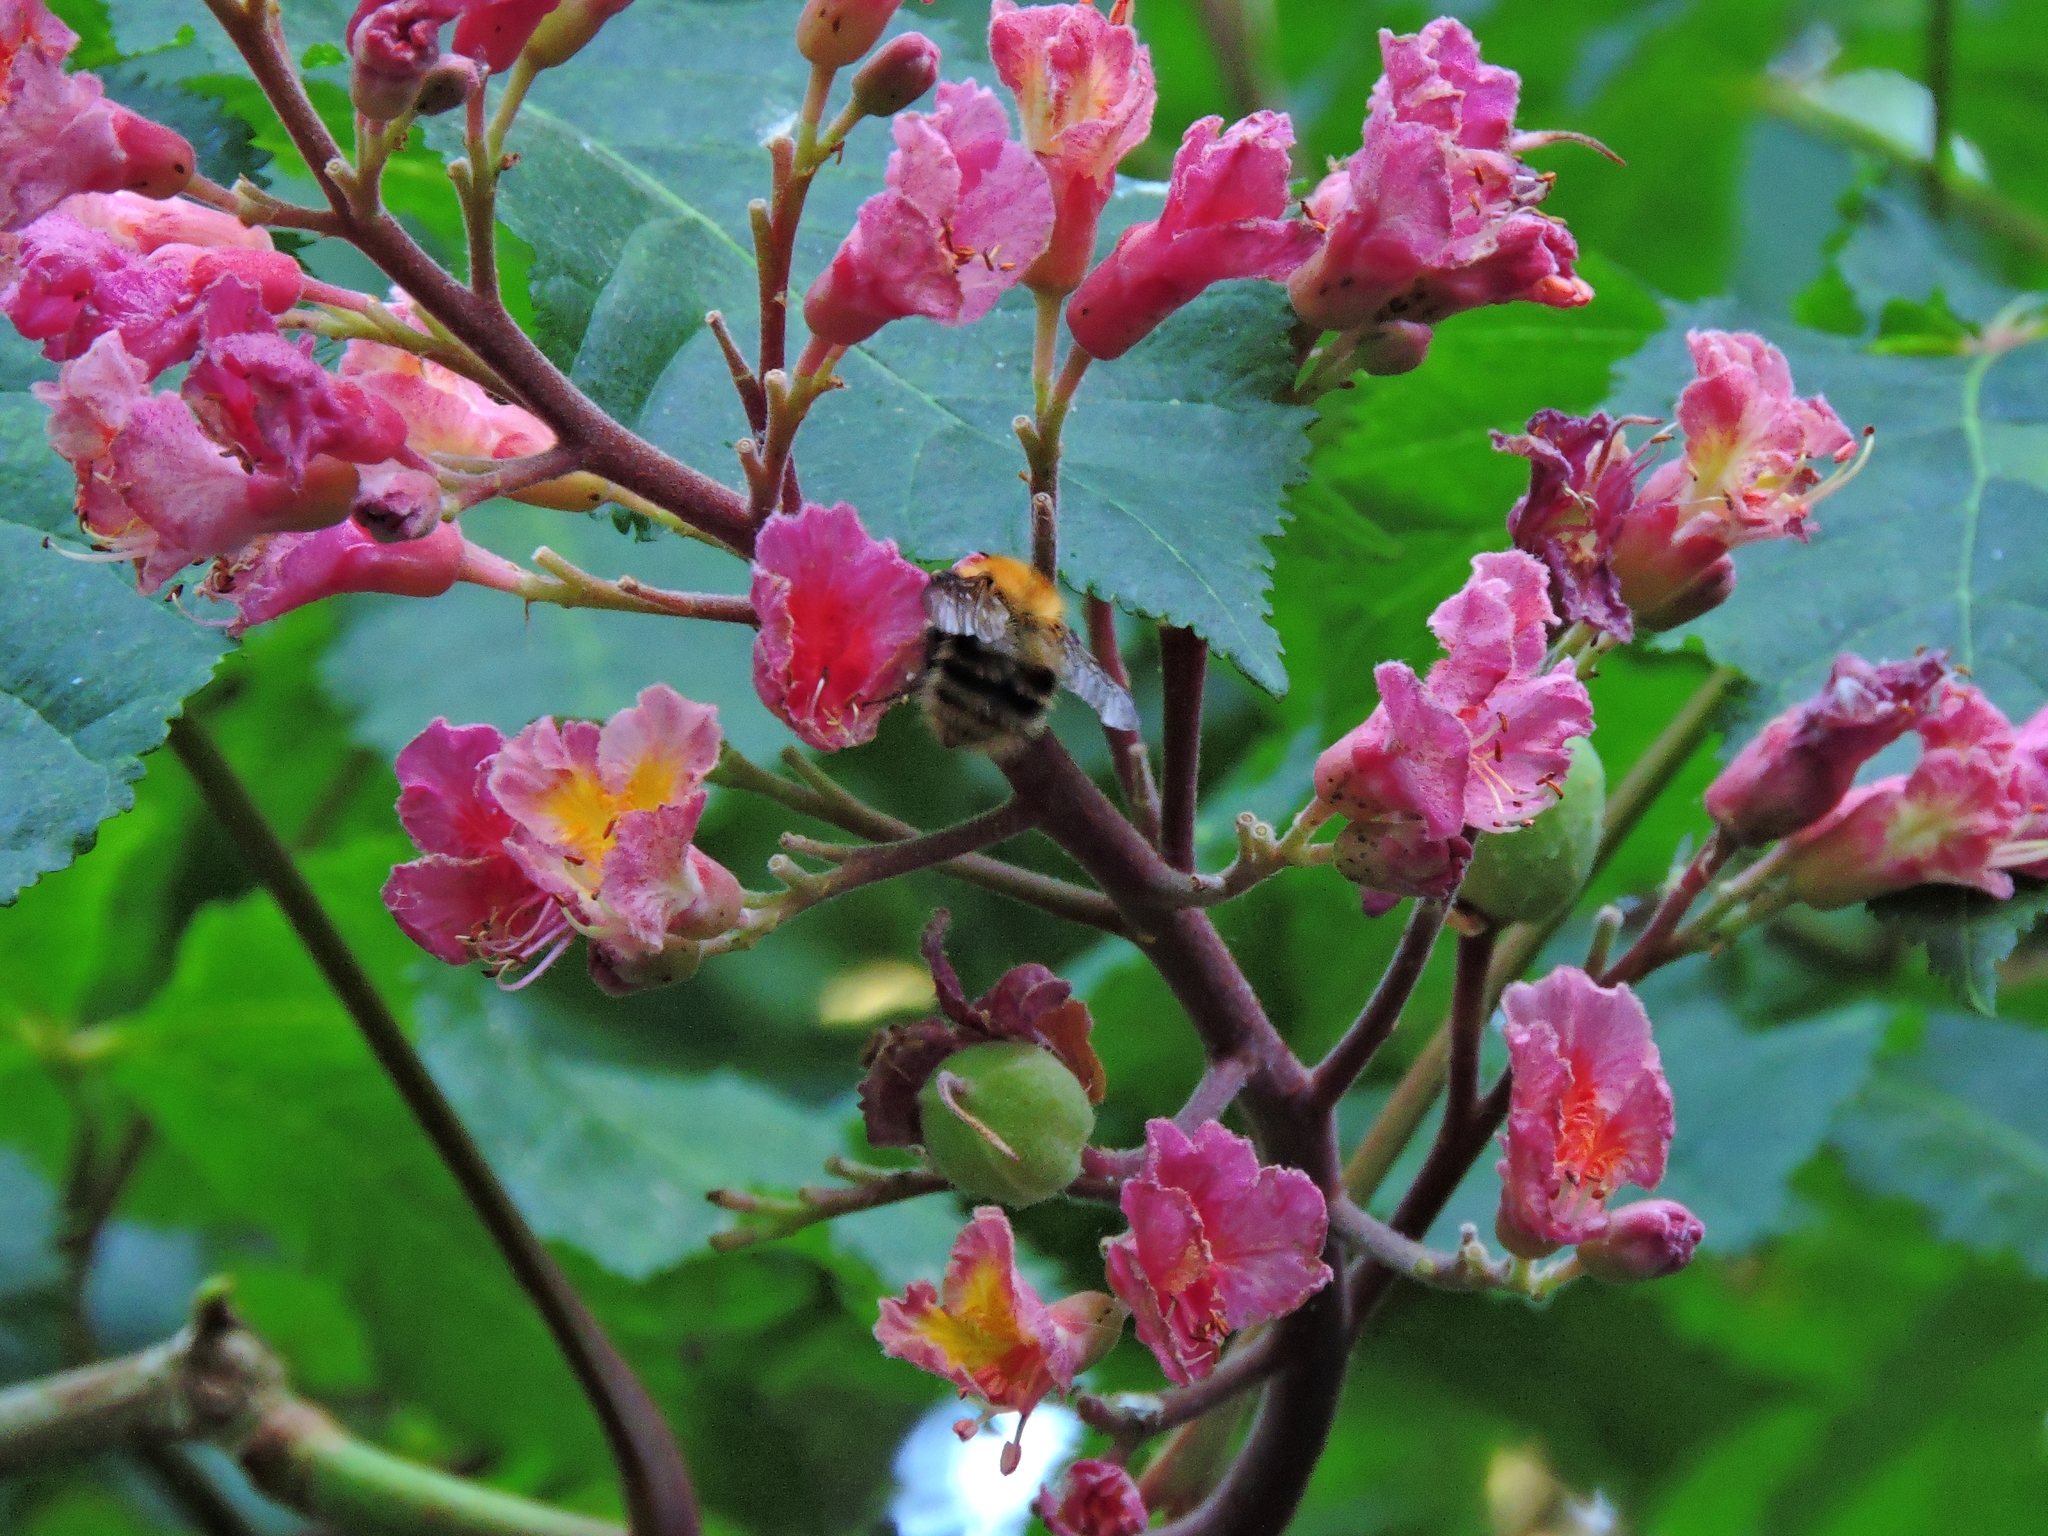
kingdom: Animalia
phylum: Arthropoda
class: Insecta
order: Hymenoptera
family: Apidae
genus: Bombus
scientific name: Bombus pascuorum
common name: Common carder bee
